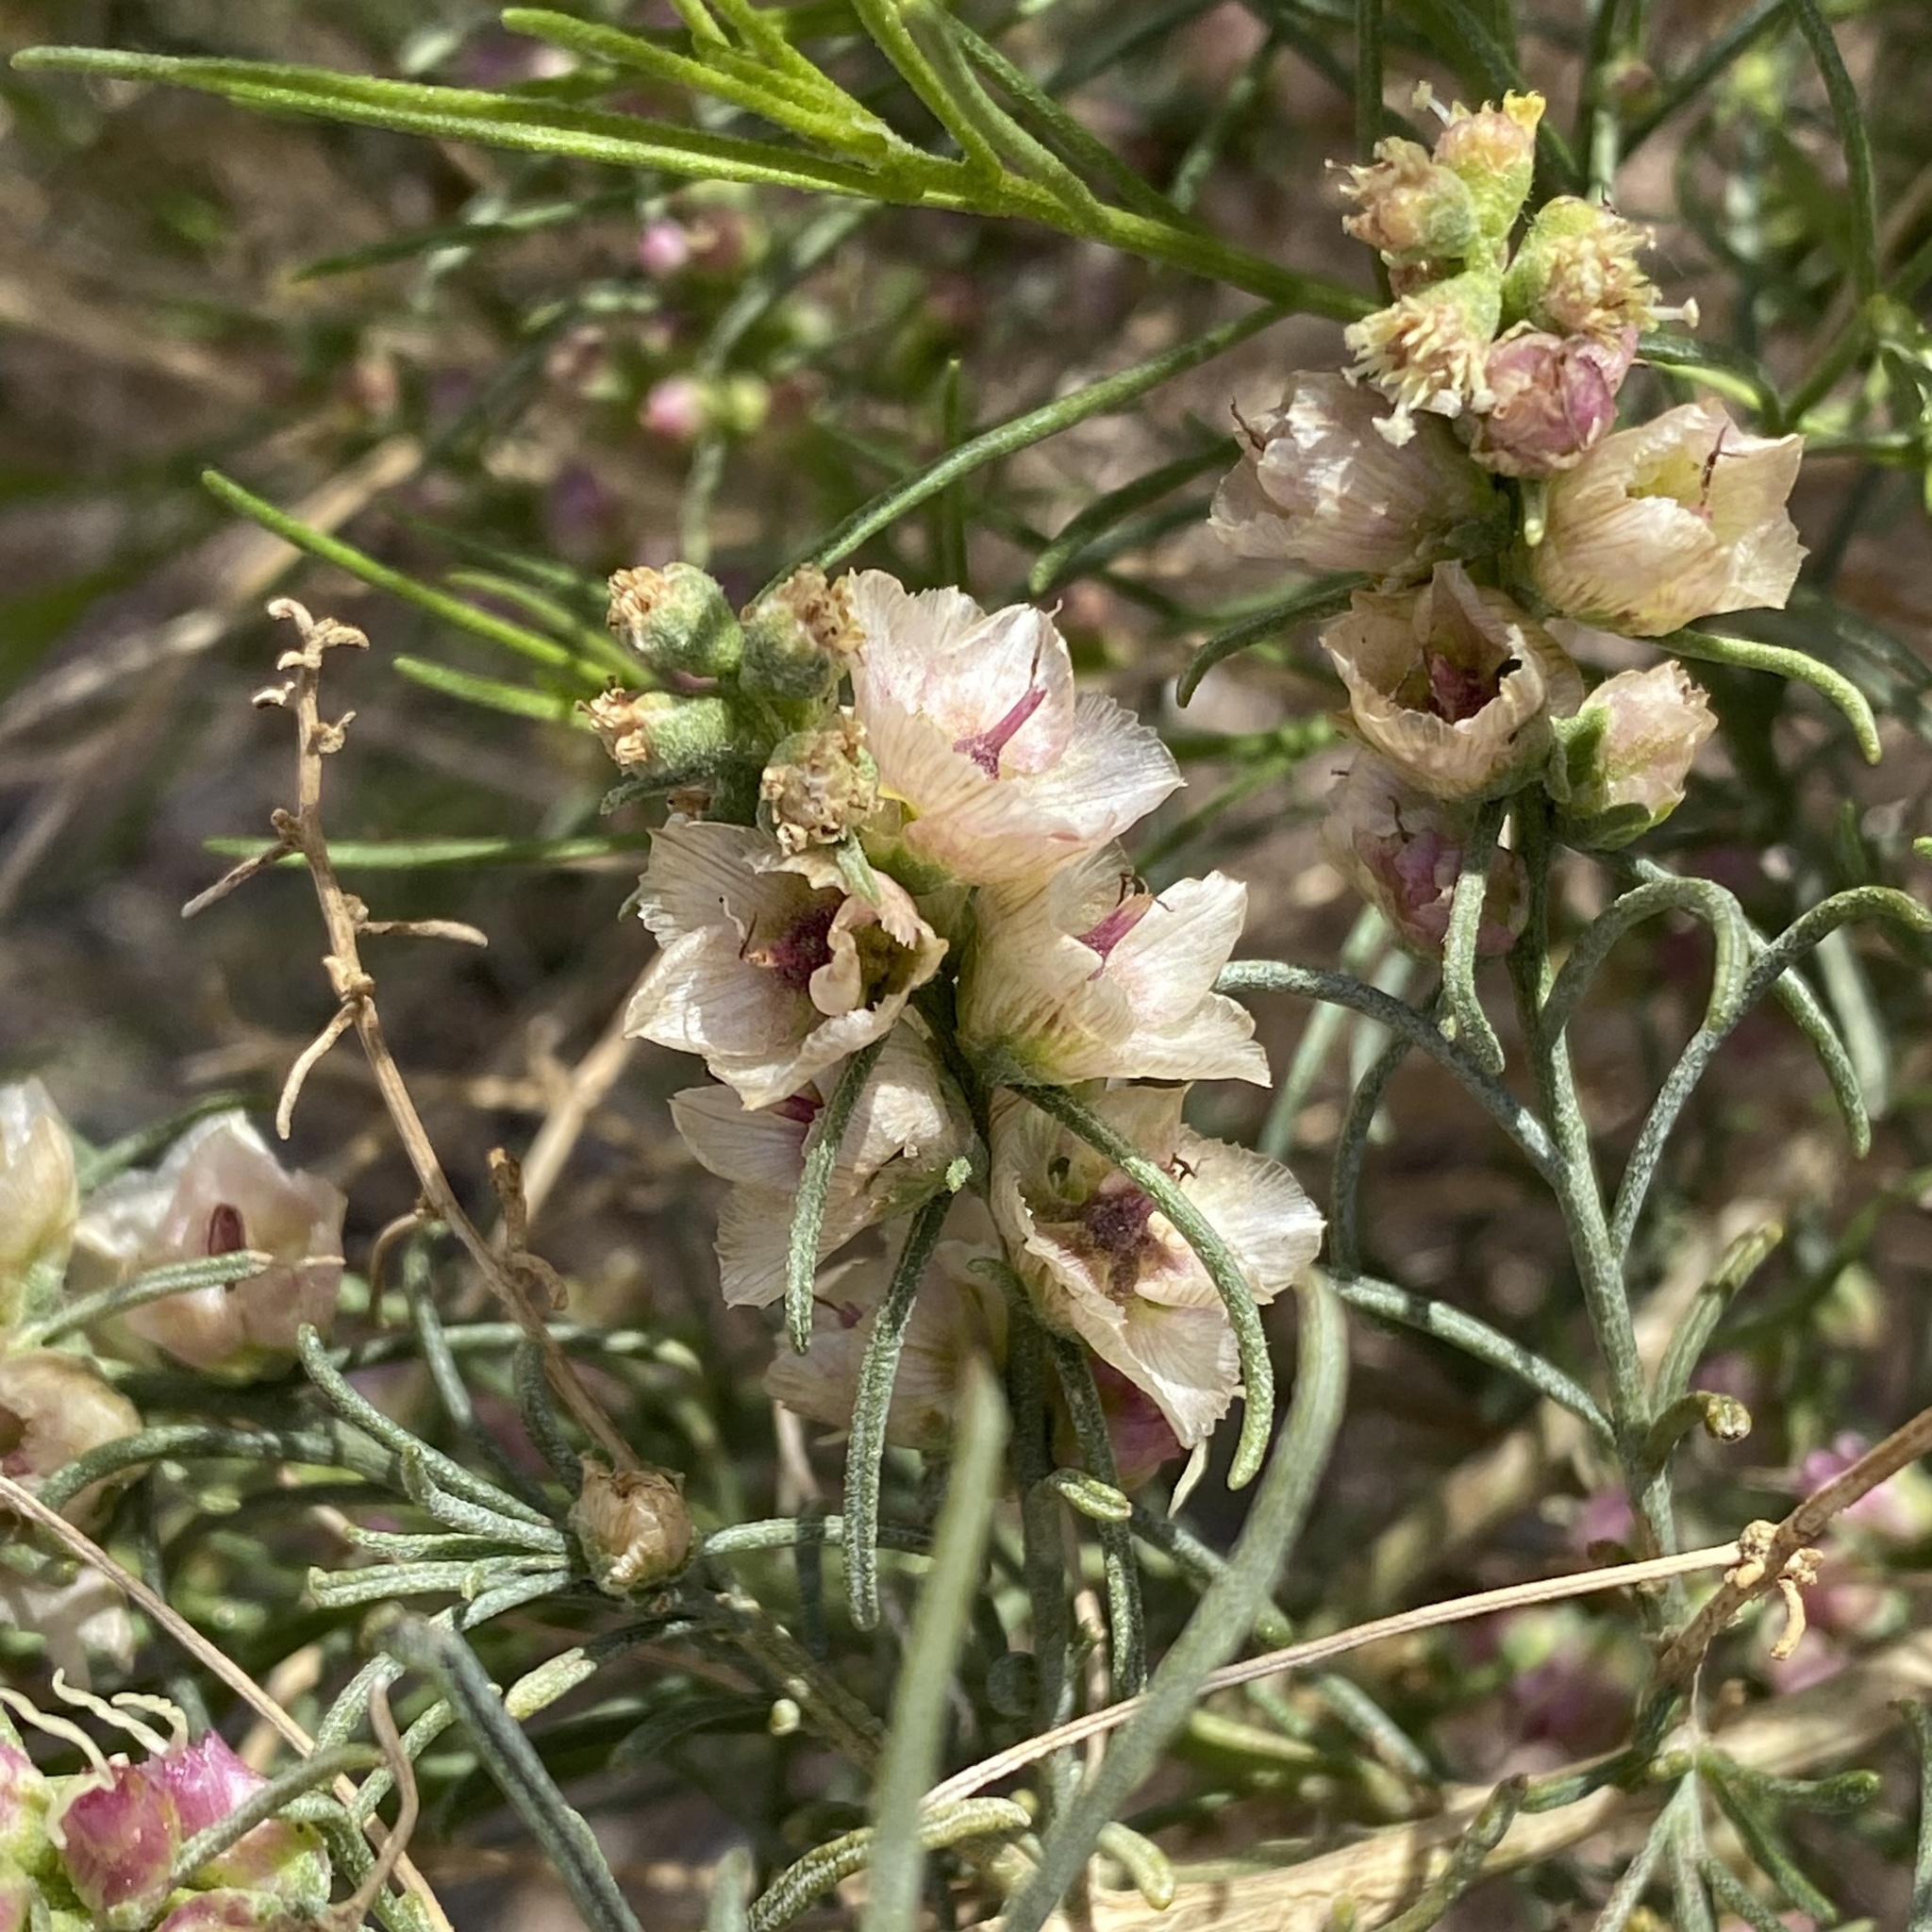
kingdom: Plantae
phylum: Tracheophyta
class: Magnoliopsida
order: Asterales
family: Asteraceae
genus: Ambrosia
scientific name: Ambrosia salsola
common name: Burrobrush
